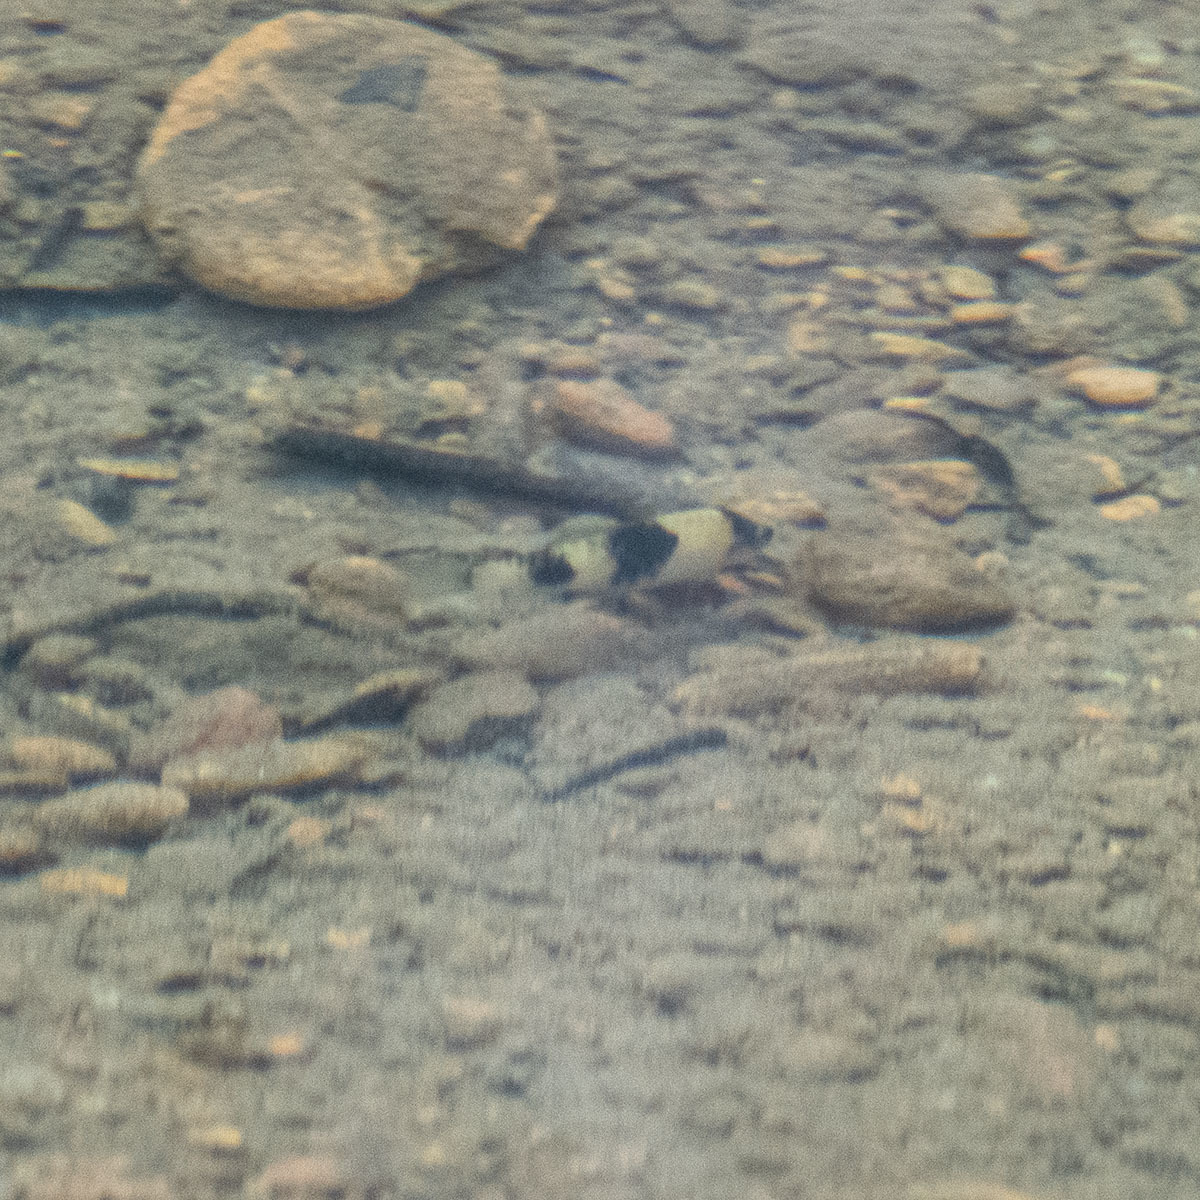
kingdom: Animalia
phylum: Chordata
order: Cypriniformes
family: Cyprinidae
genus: Haludaria
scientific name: Haludaria fasciata
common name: Melon barb
